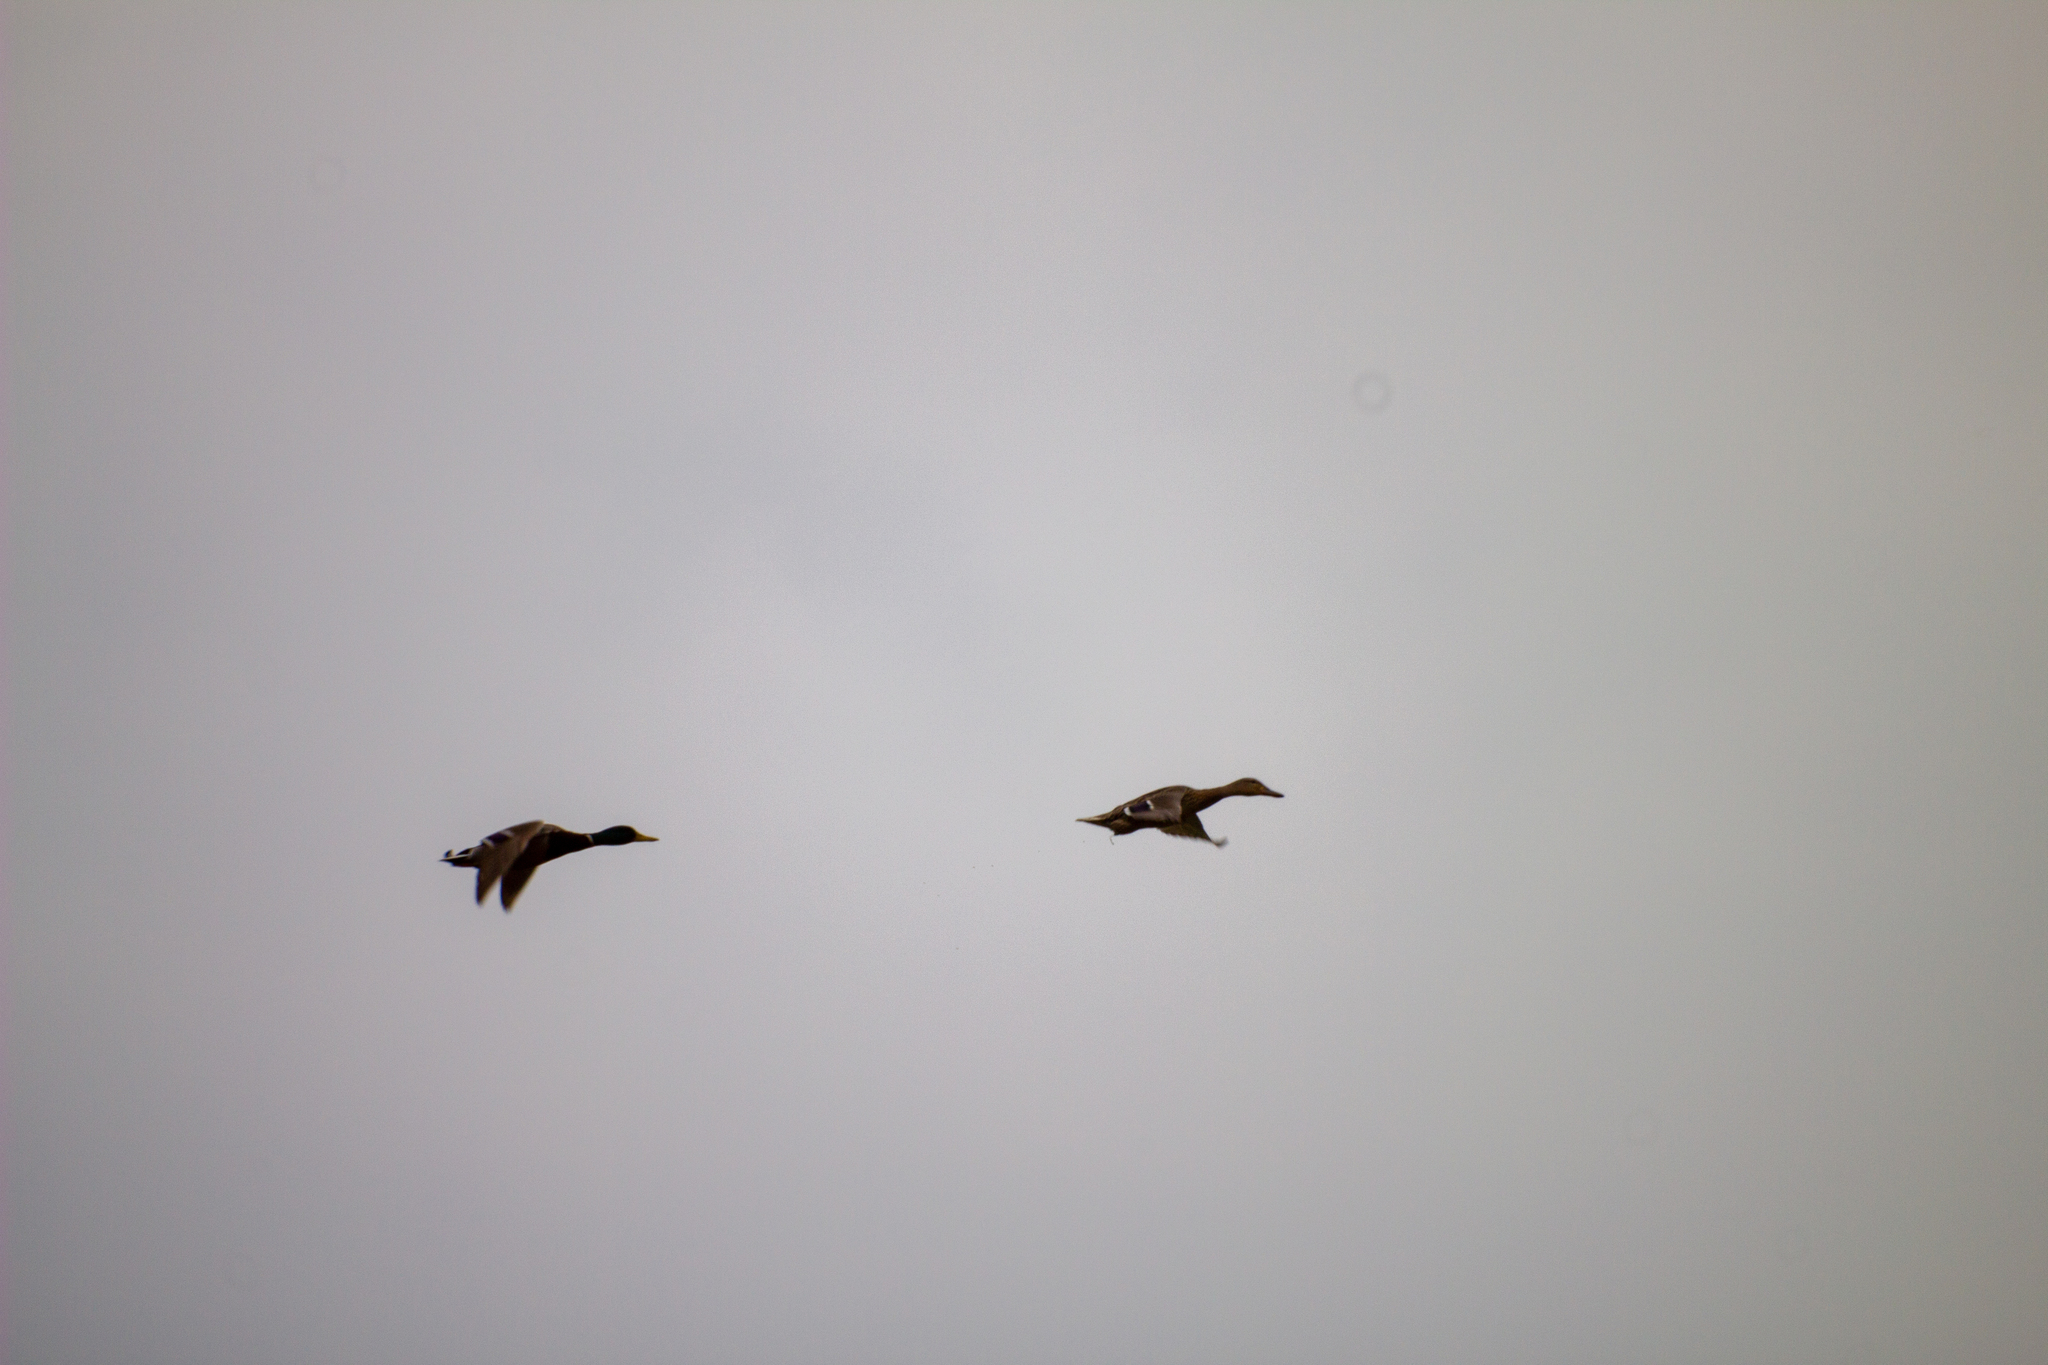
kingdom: Animalia
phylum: Chordata
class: Aves
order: Anseriformes
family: Anatidae
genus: Anas
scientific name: Anas platyrhynchos
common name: Mallard
